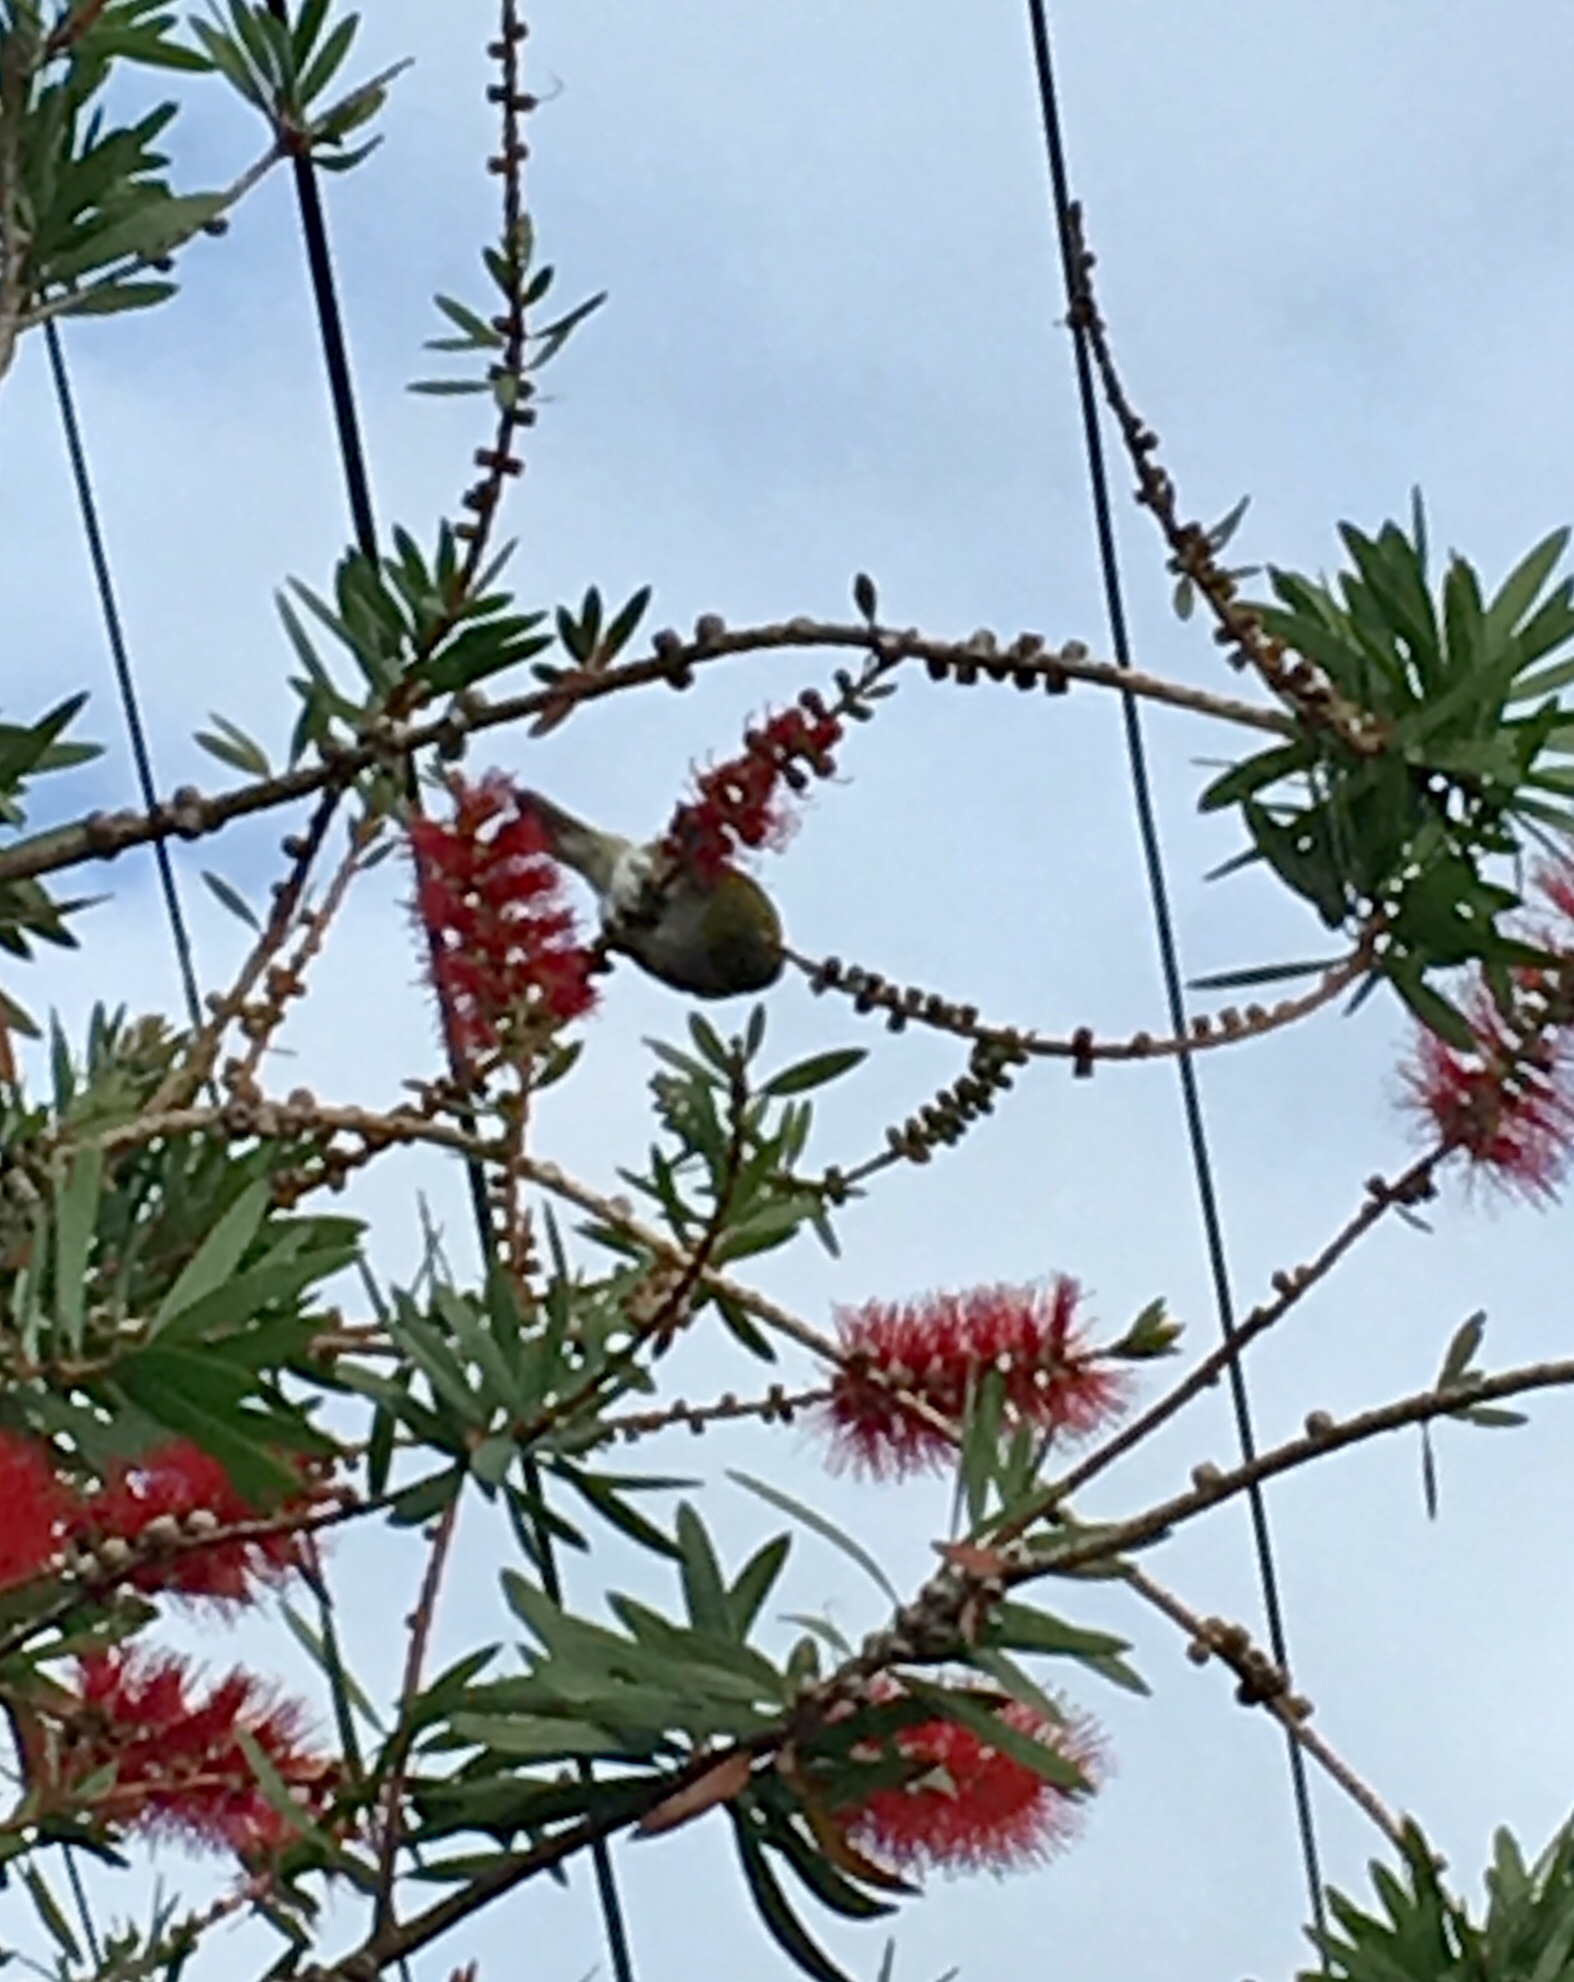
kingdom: Animalia
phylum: Chordata
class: Aves
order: Passeriformes
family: Zosteropidae
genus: Zosterops
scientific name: Zosterops lateralis
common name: Silvereye
